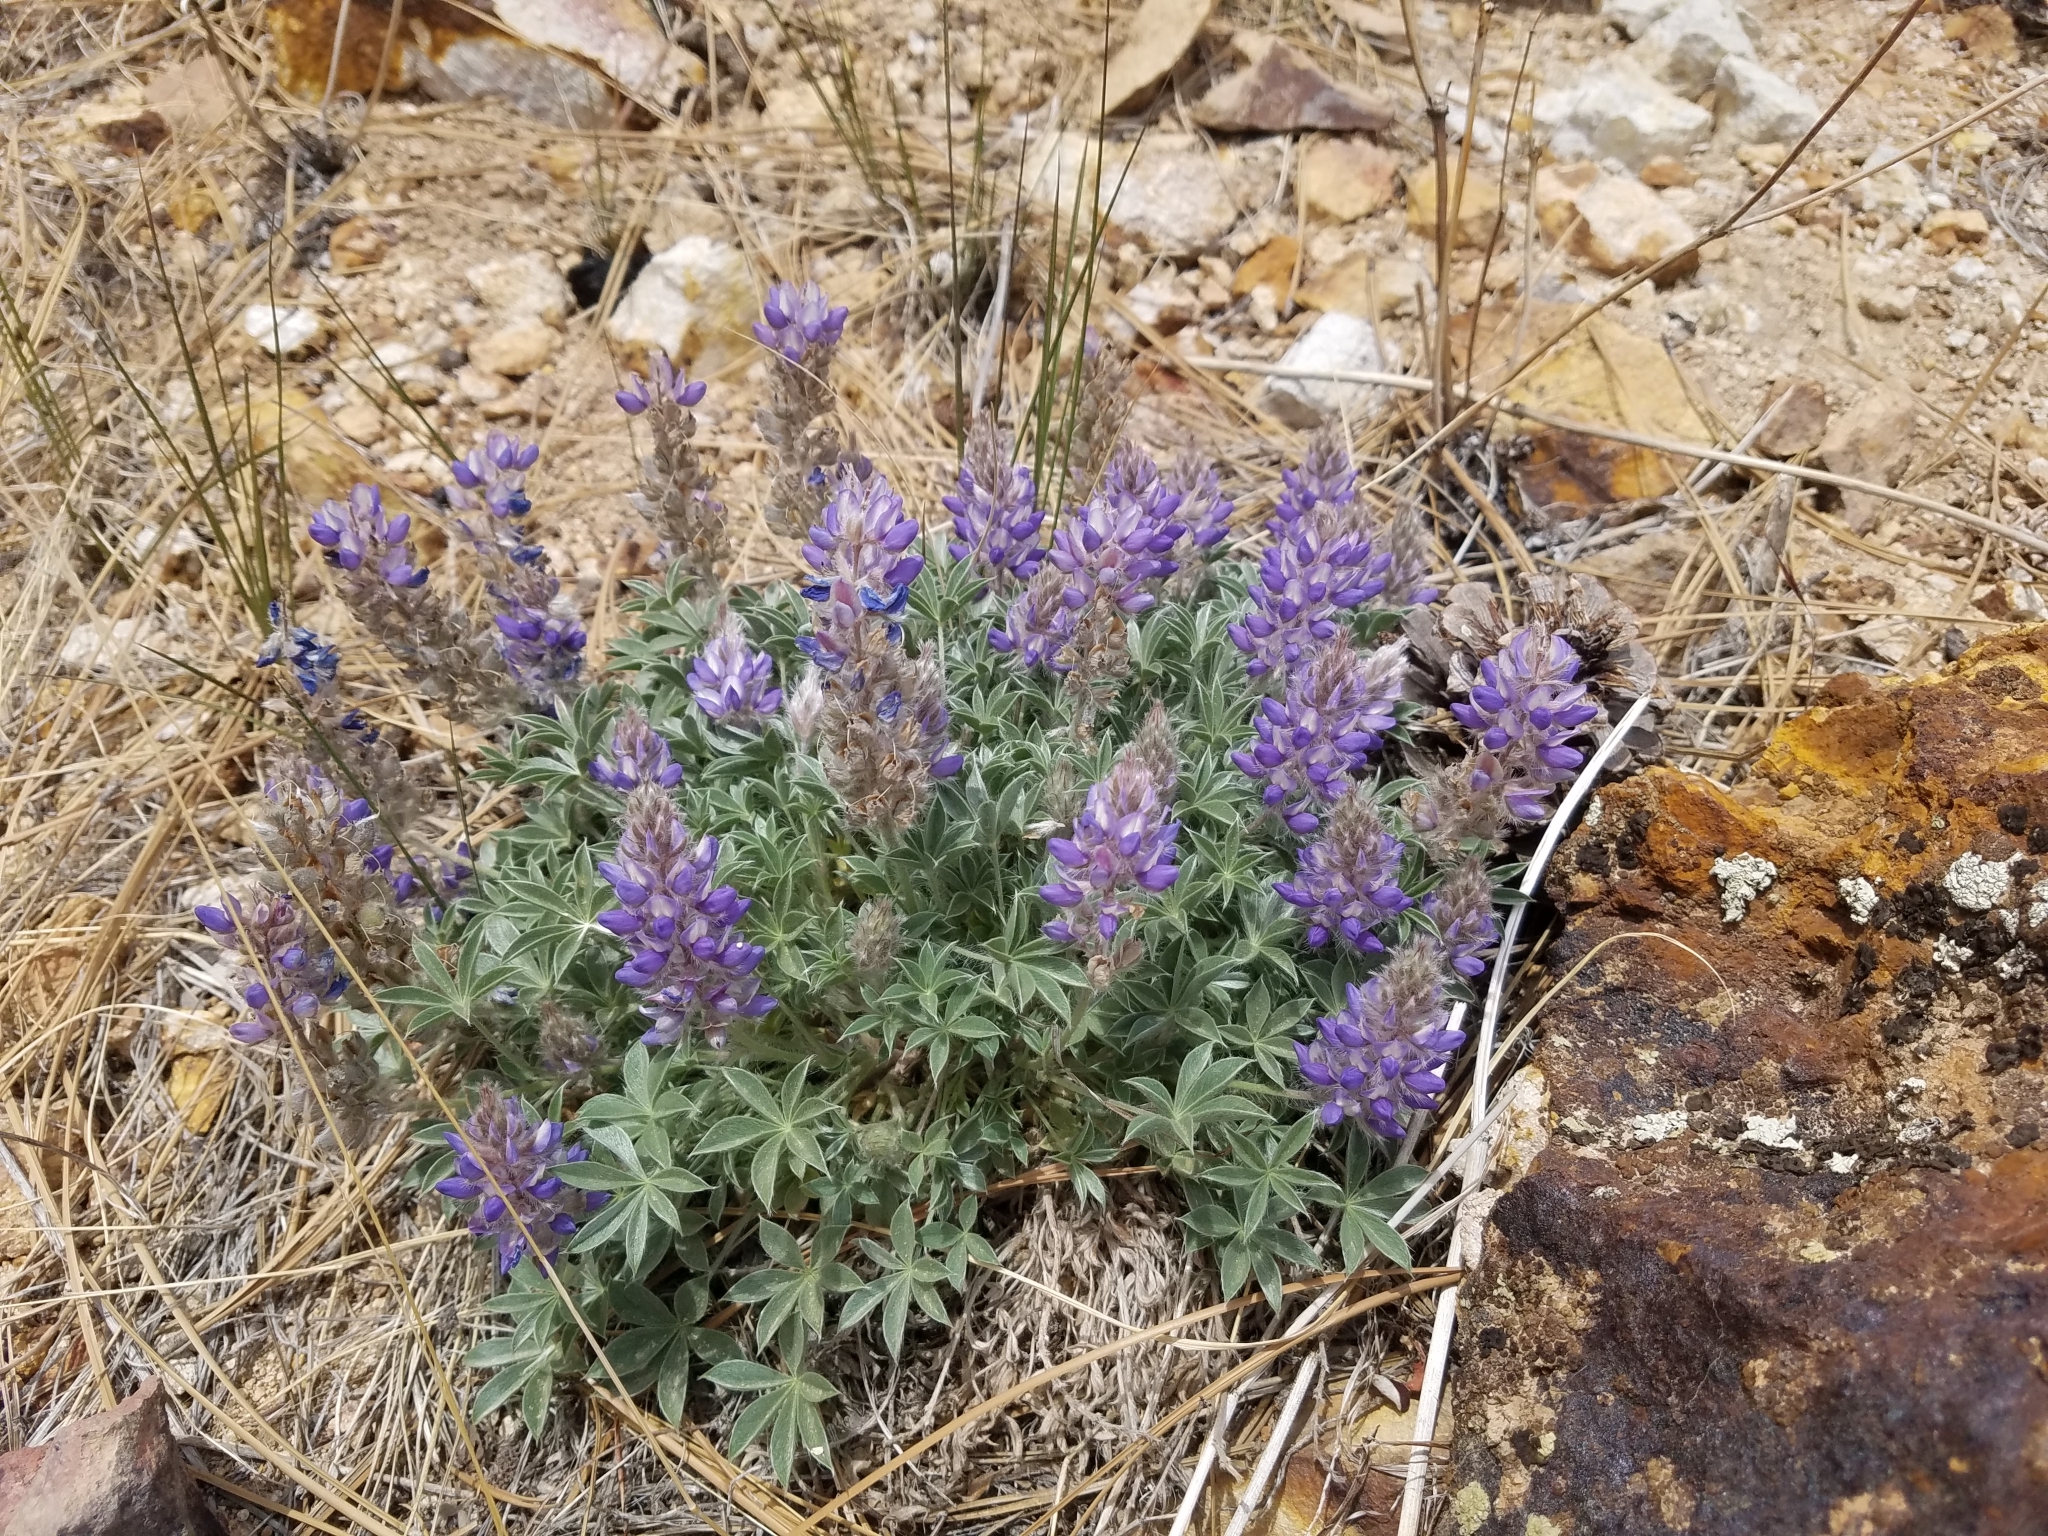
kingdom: Plantae
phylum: Tracheophyta
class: Magnoliopsida
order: Fabales
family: Fabaceae
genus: Lupinus
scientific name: Lupinus lepidus
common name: Prairie lupine
